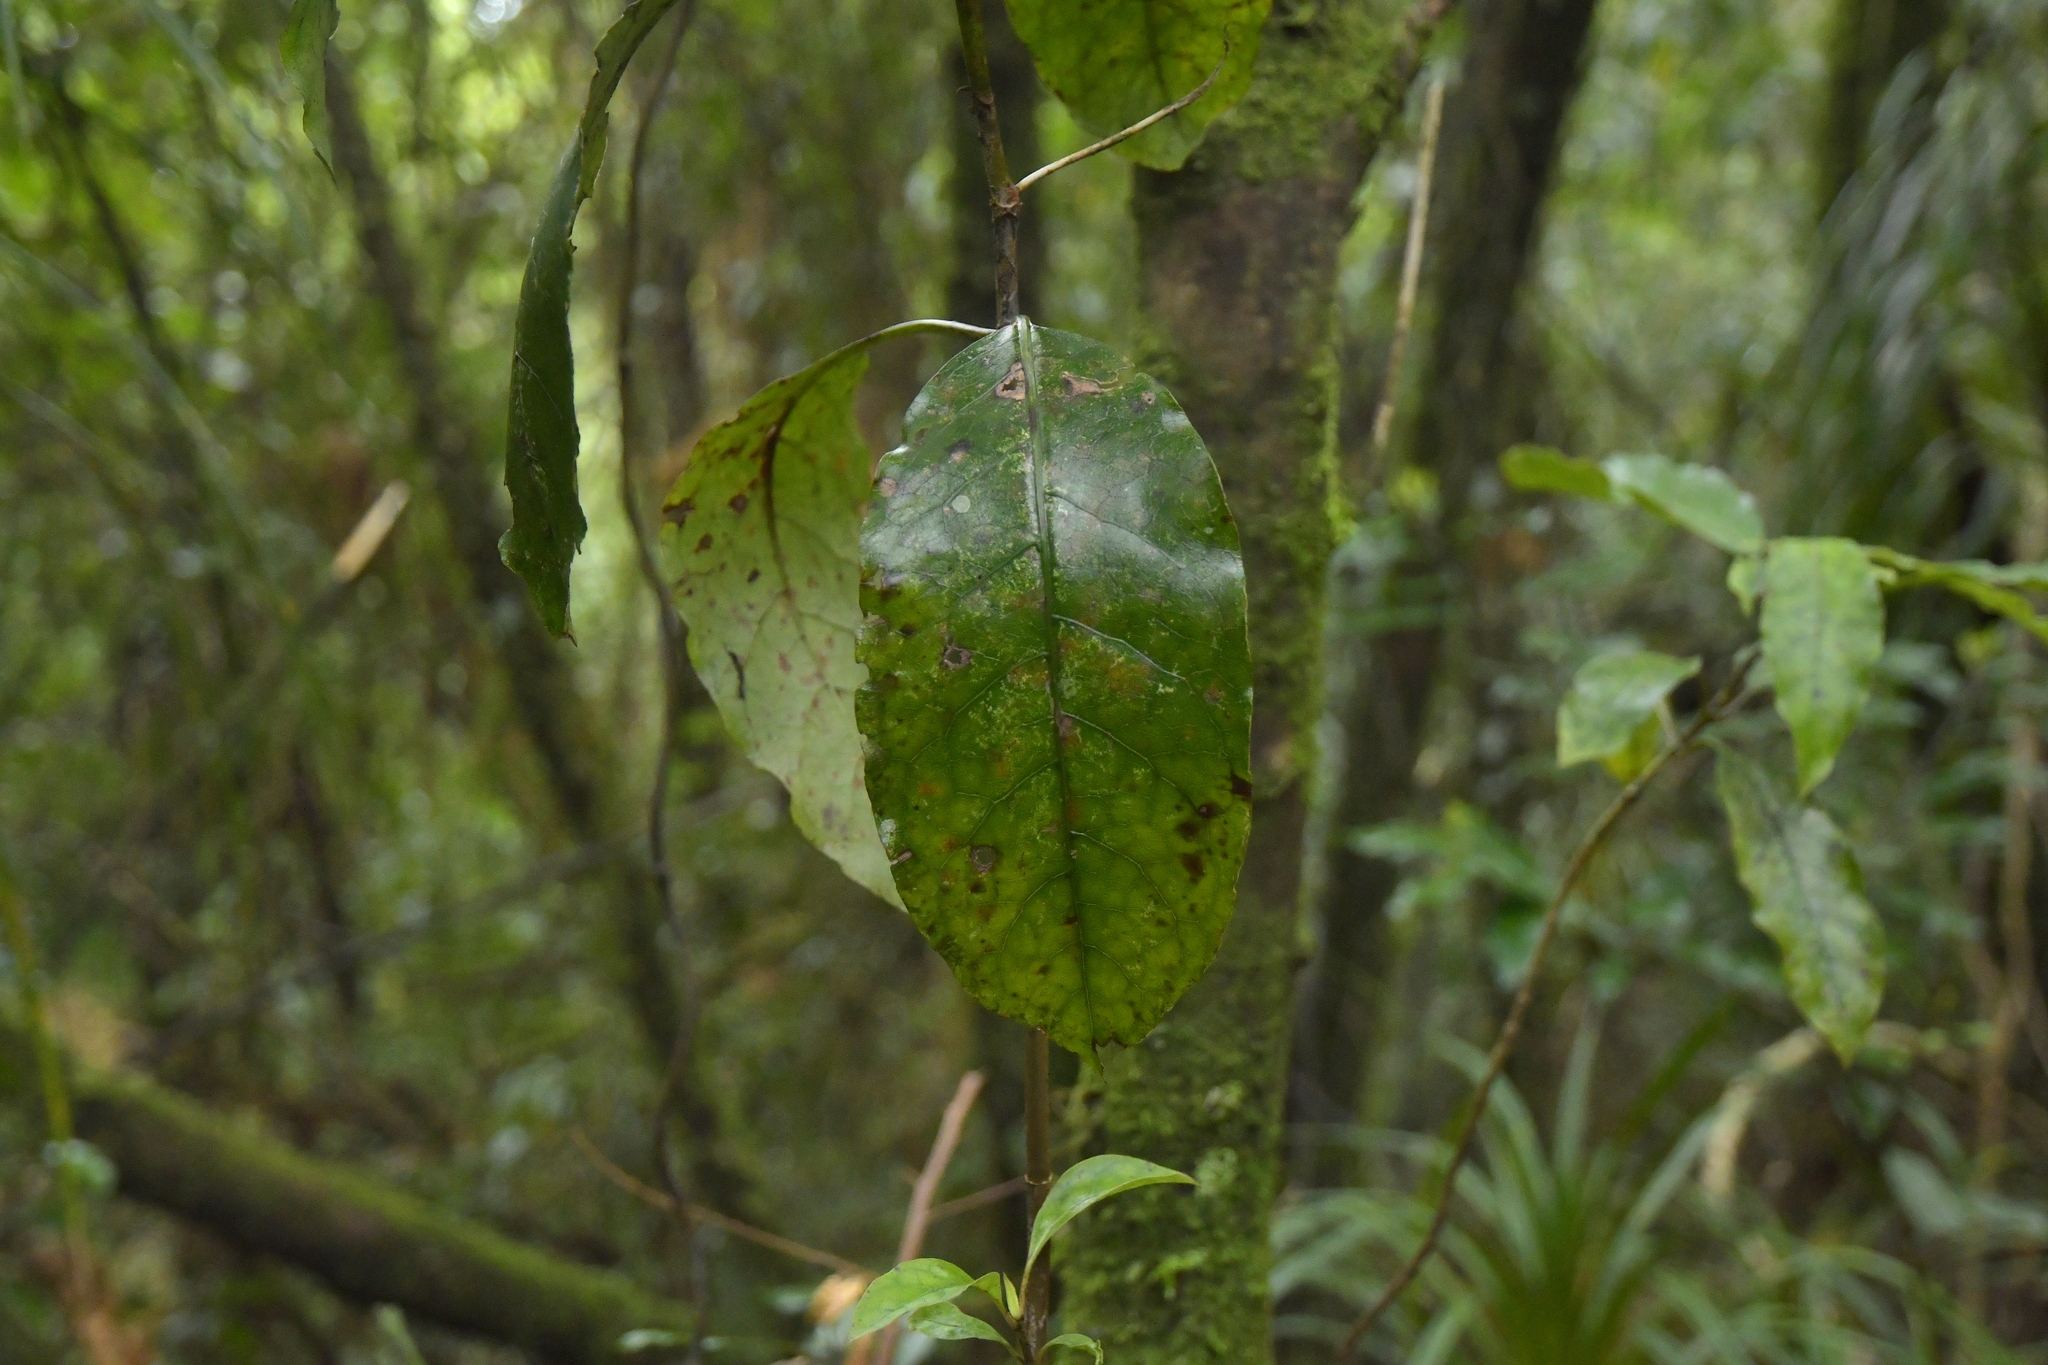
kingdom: Plantae
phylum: Tracheophyta
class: Magnoliopsida
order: Gentianales
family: Rubiaceae
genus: Coprosma
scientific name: Coprosma autumnalis
